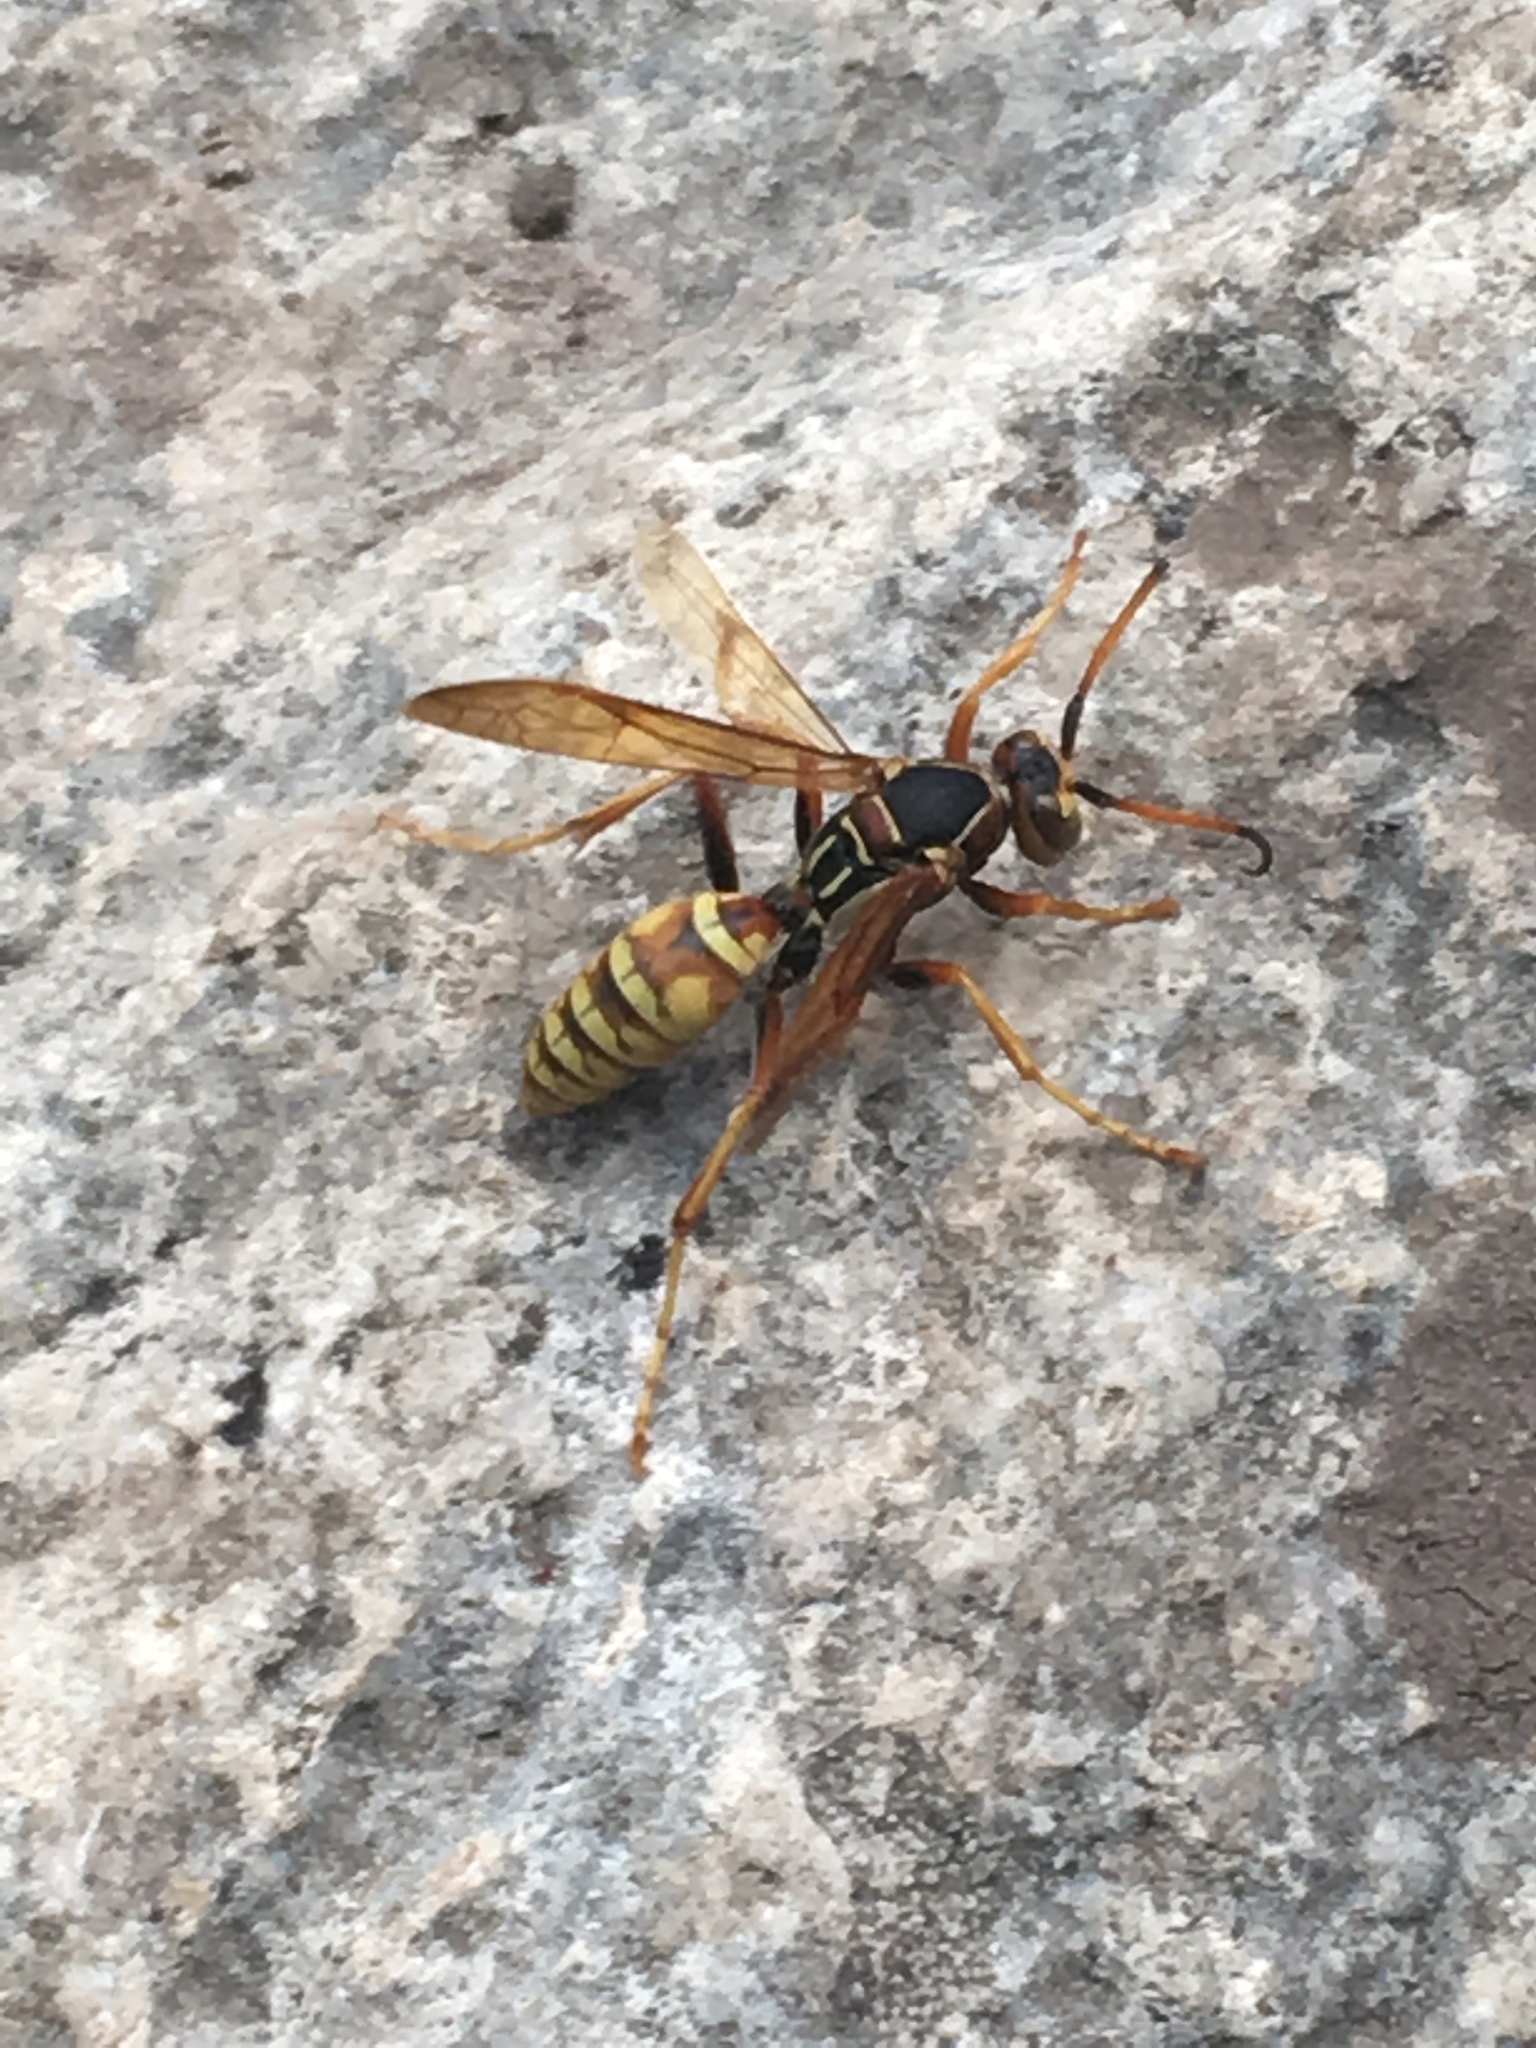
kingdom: Animalia
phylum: Arthropoda
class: Insecta
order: Hymenoptera
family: Eumenidae
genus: Polistes
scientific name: Polistes aurifer
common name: Paper wasp
